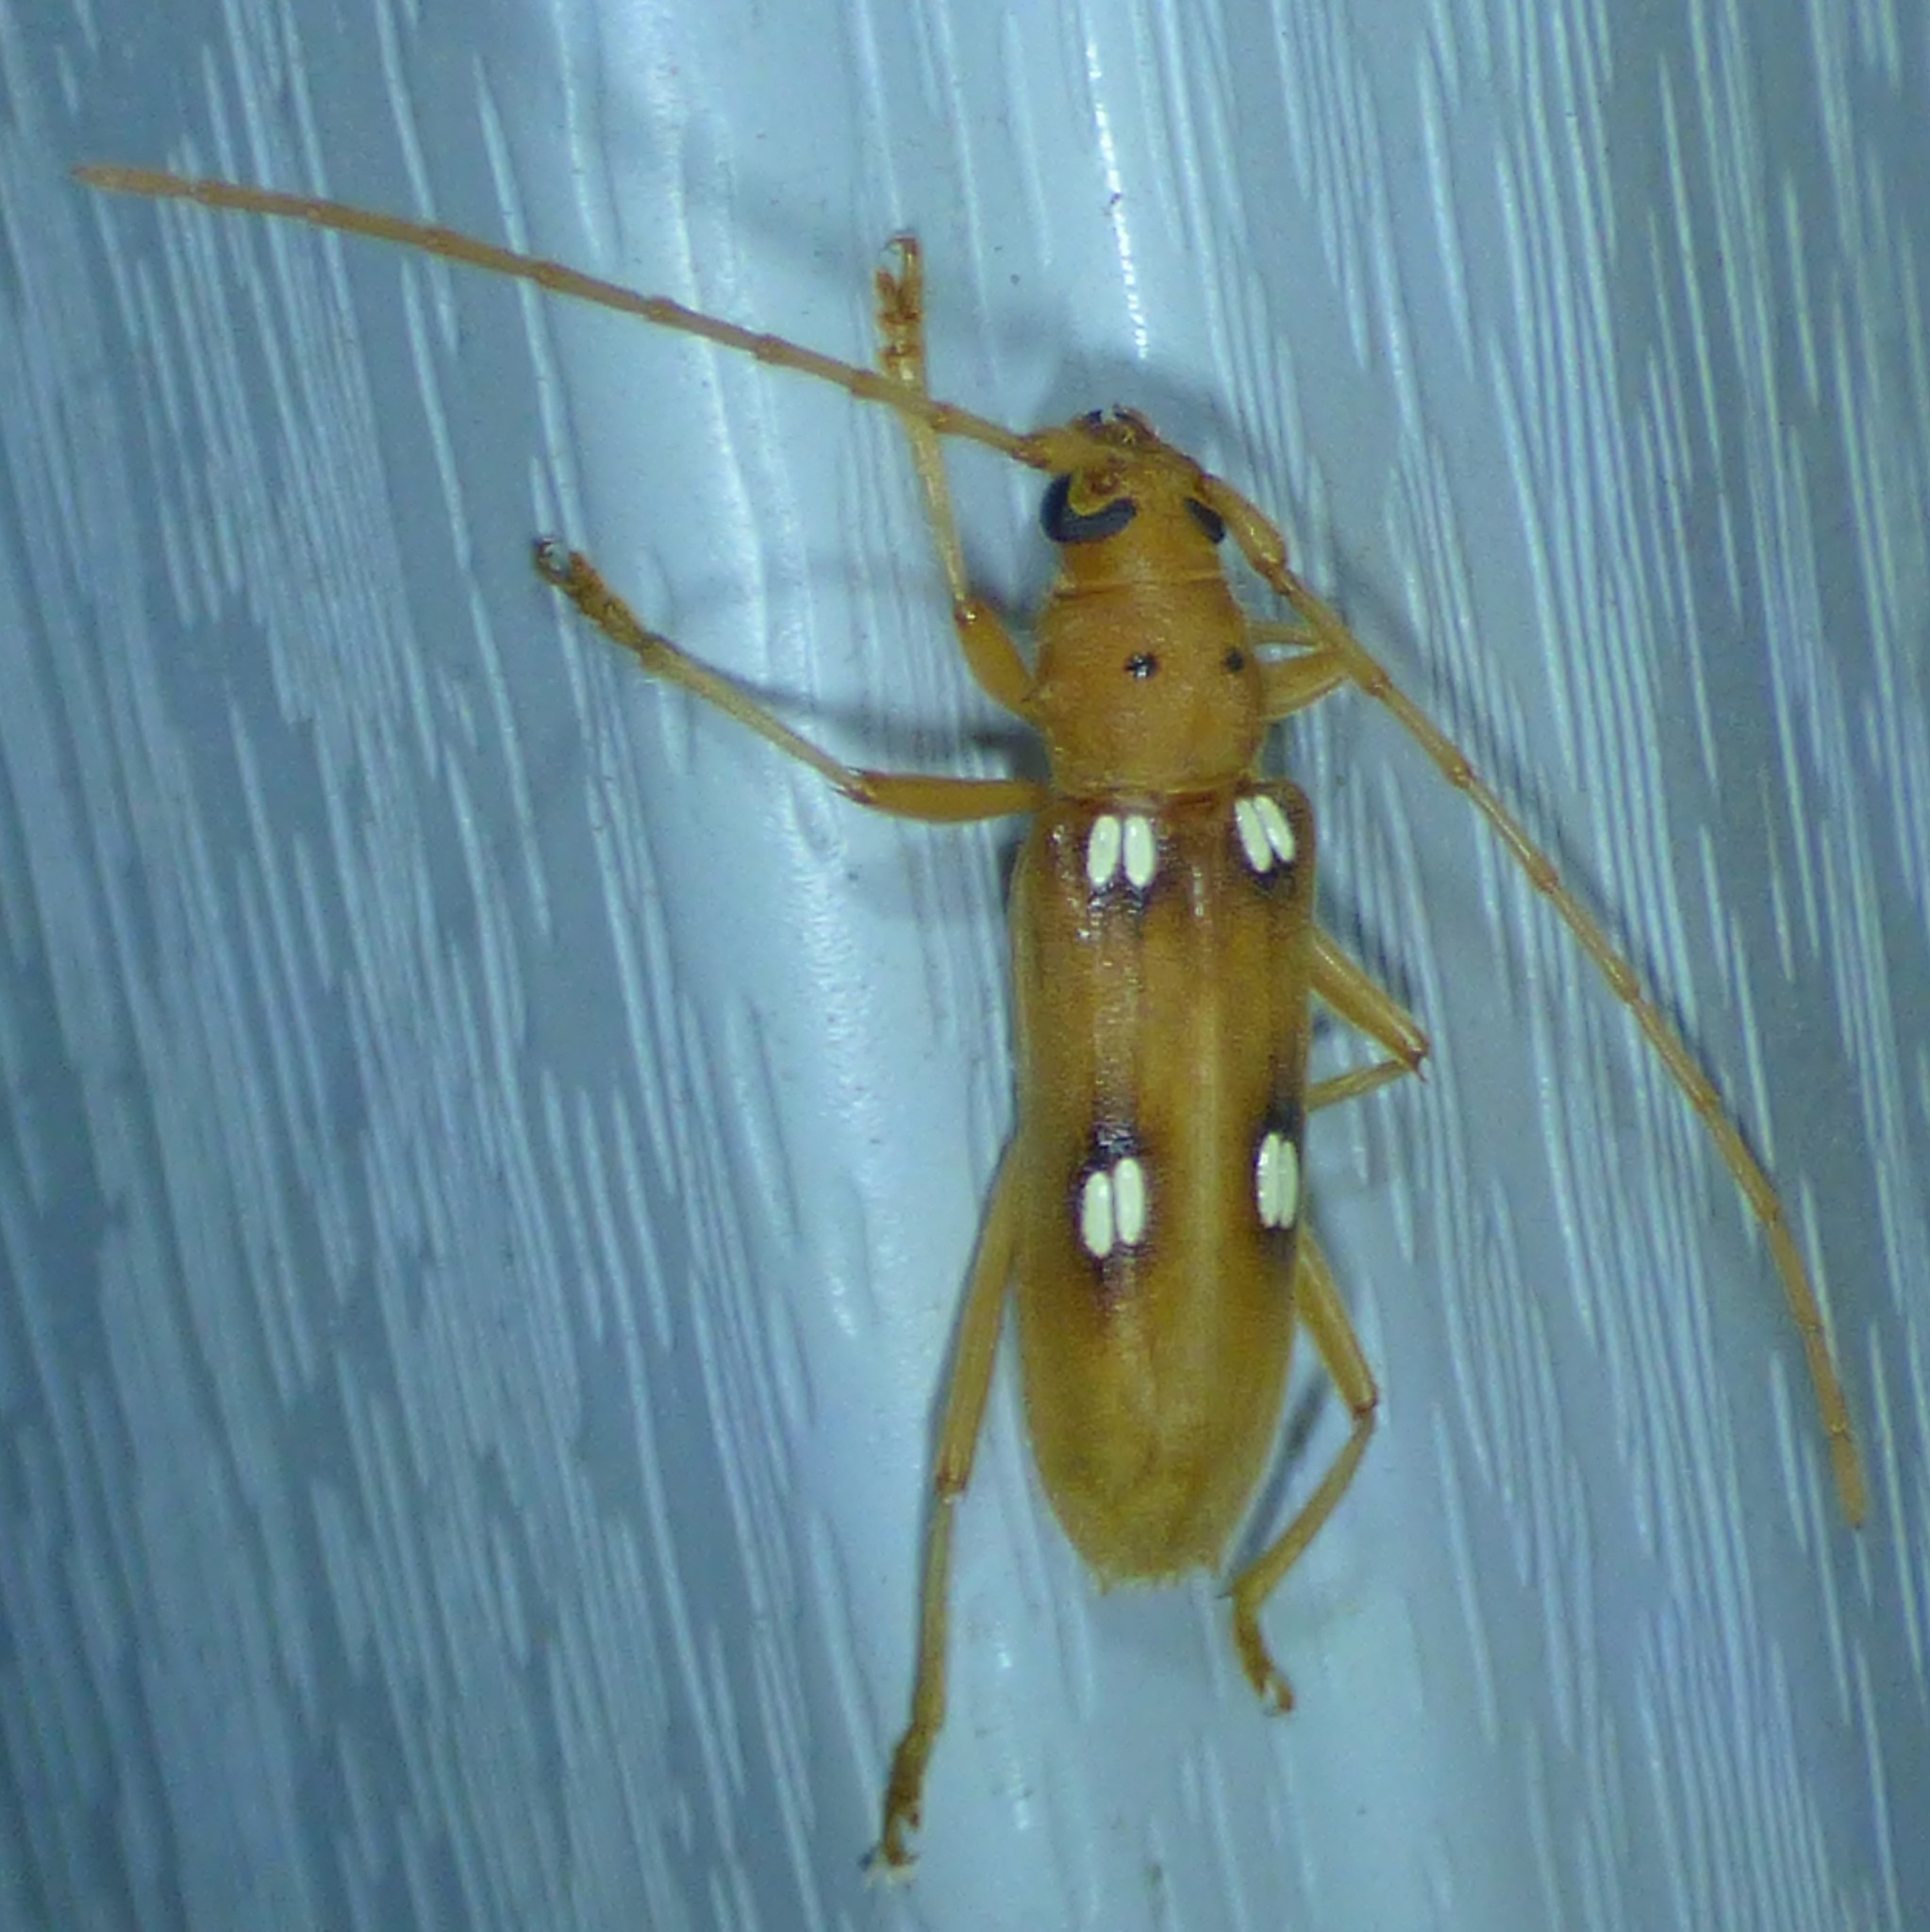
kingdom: Animalia
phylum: Arthropoda
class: Insecta
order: Coleoptera
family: Cerambycidae
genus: Eburia
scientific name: Eburia quadrigeminata
